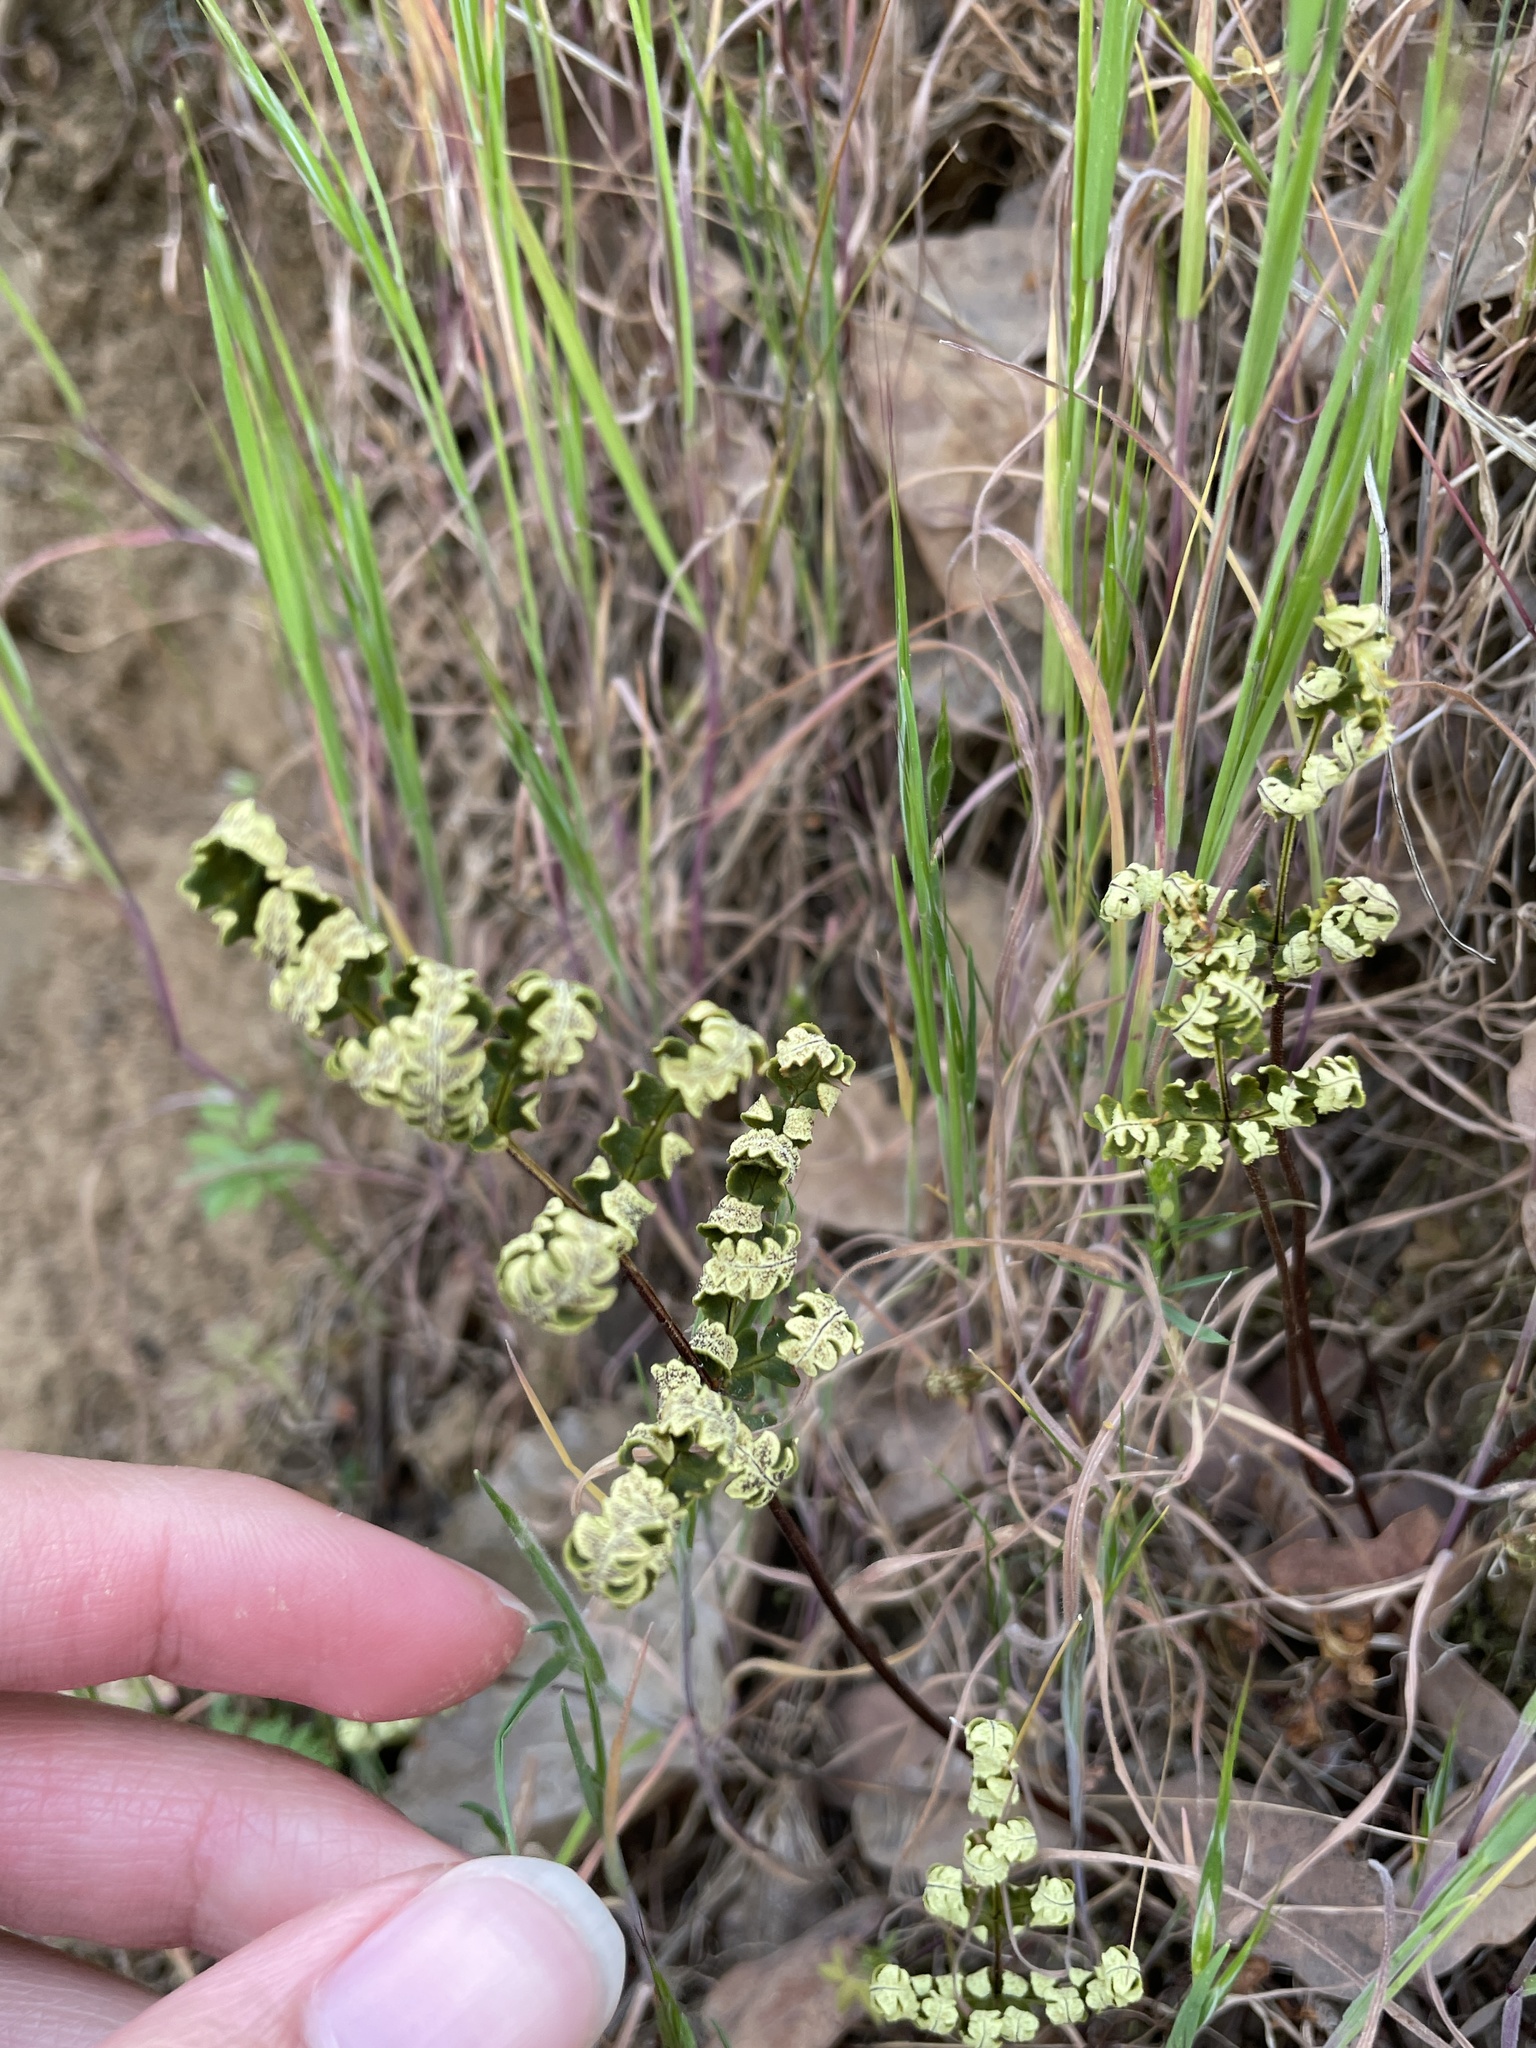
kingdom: Plantae
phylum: Tracheophyta
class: Polypodiopsida
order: Polypodiales
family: Pteridaceae
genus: Pentagramma
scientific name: Pentagramma triangularis
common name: Gold fern
